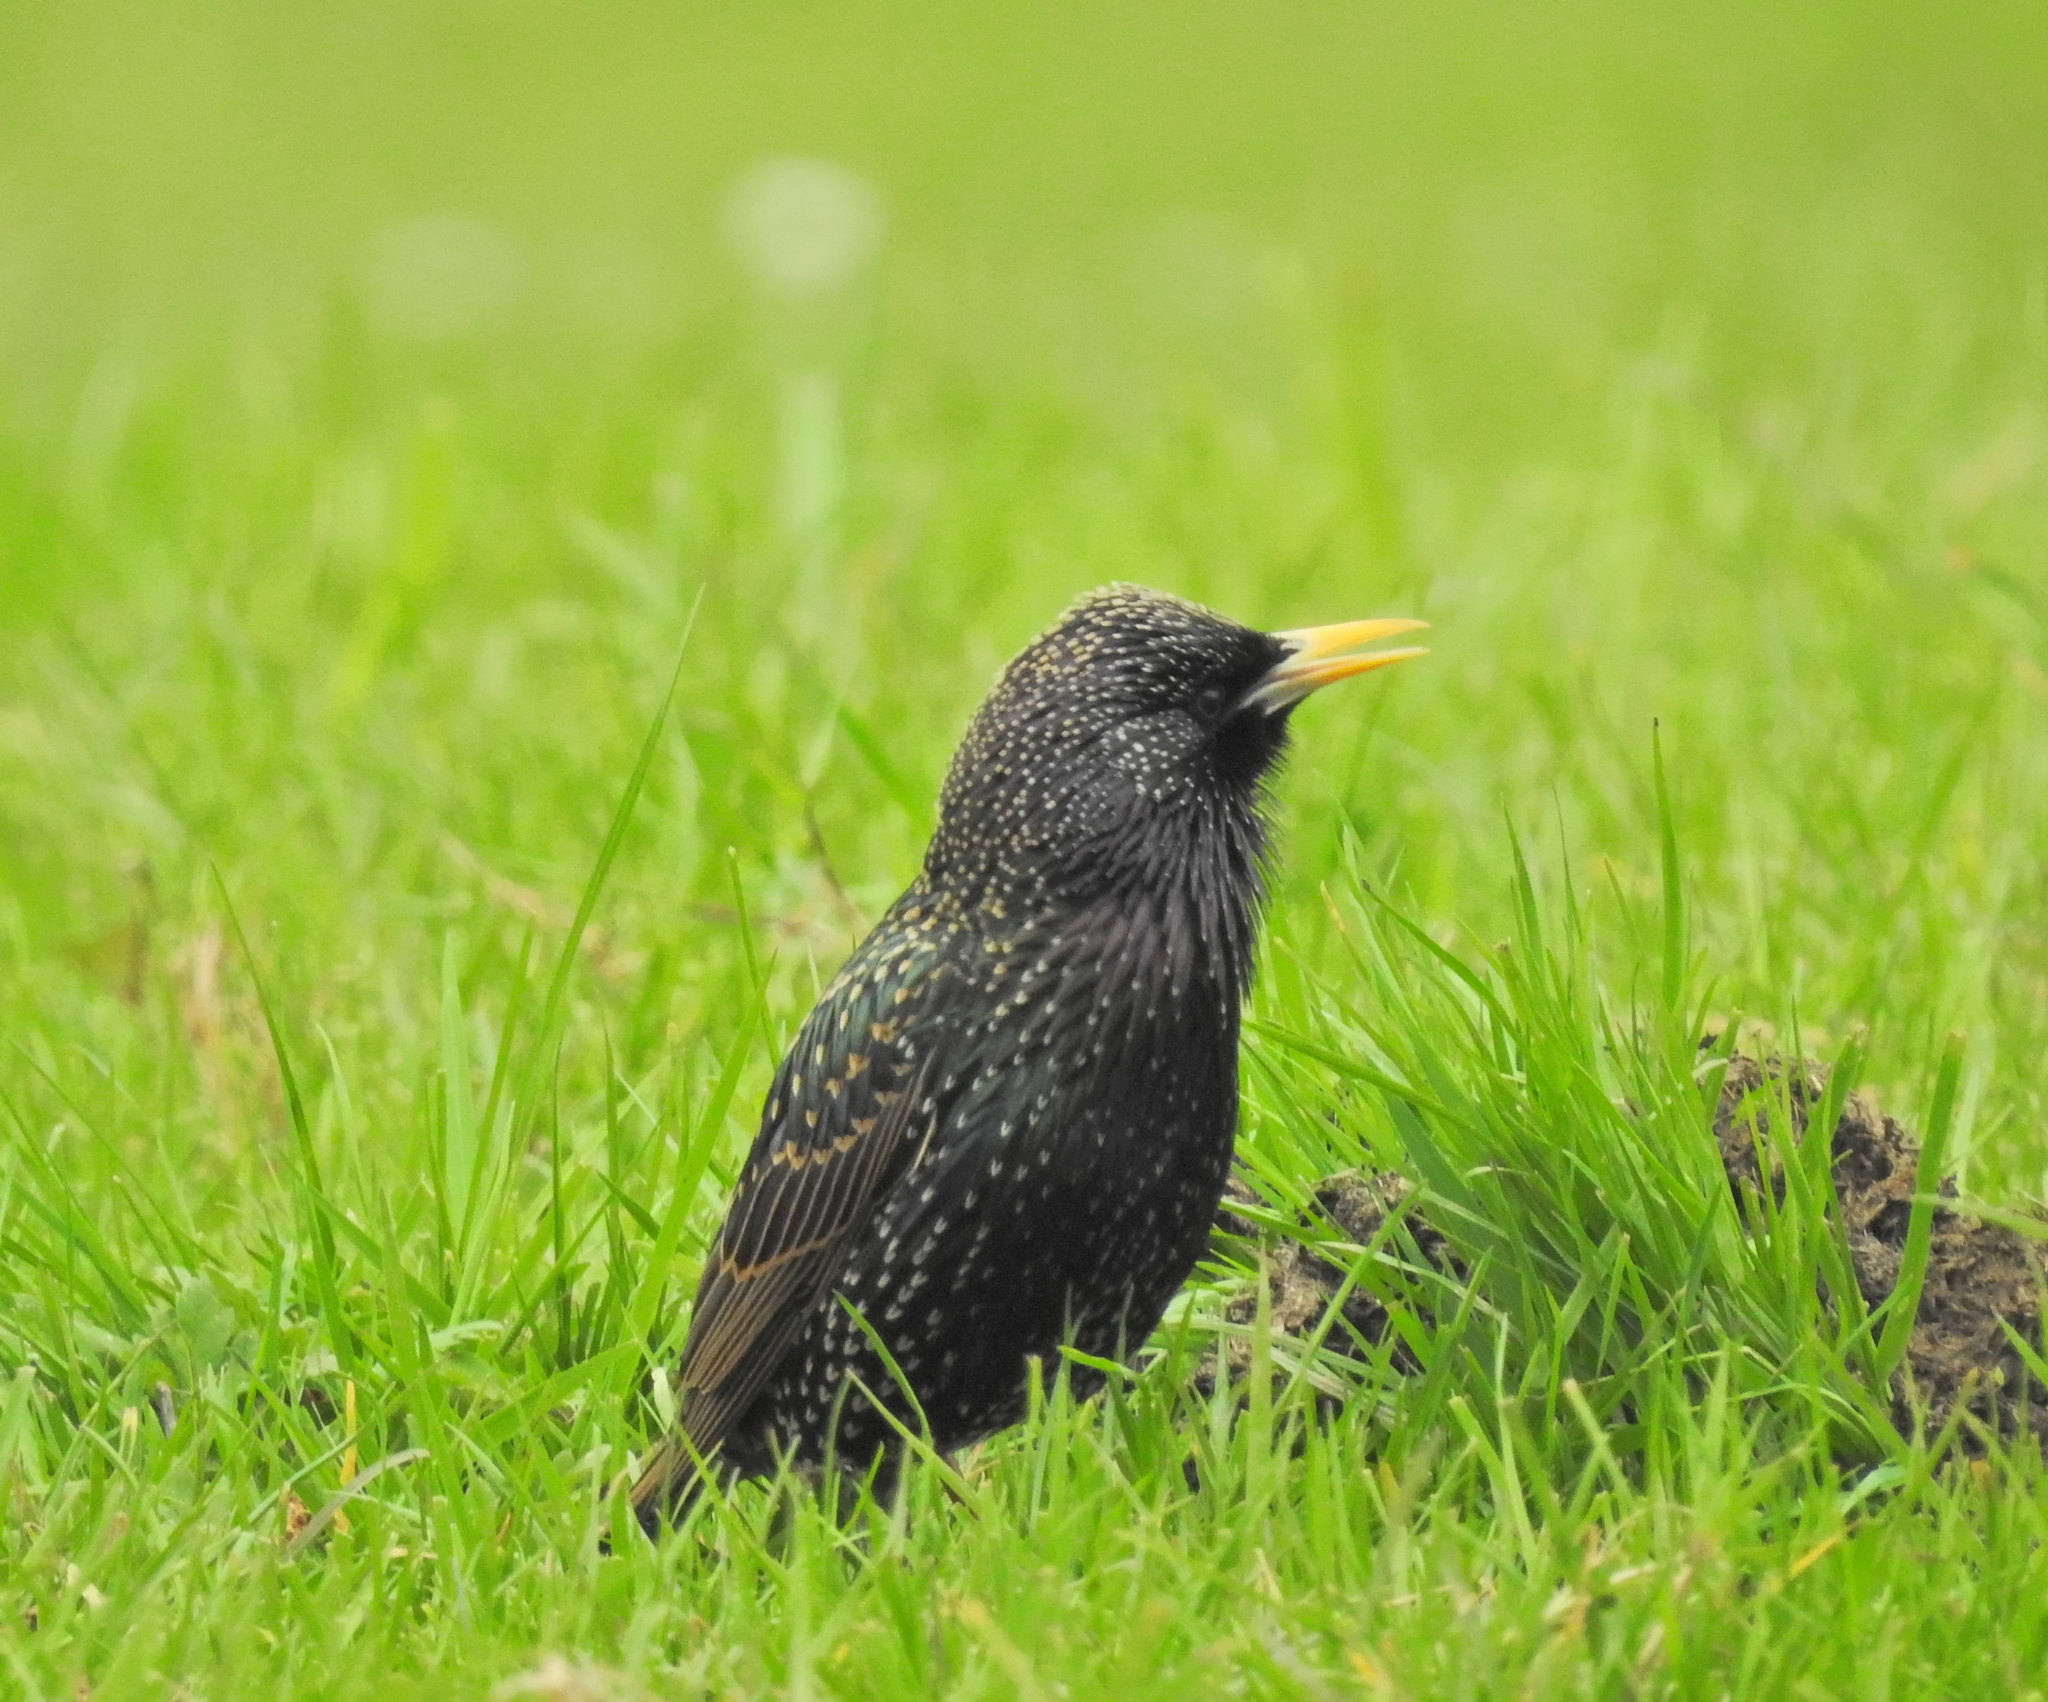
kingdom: Animalia
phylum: Chordata
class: Aves
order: Passeriformes
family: Sturnidae
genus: Sturnus
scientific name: Sturnus vulgaris
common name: Common starling
